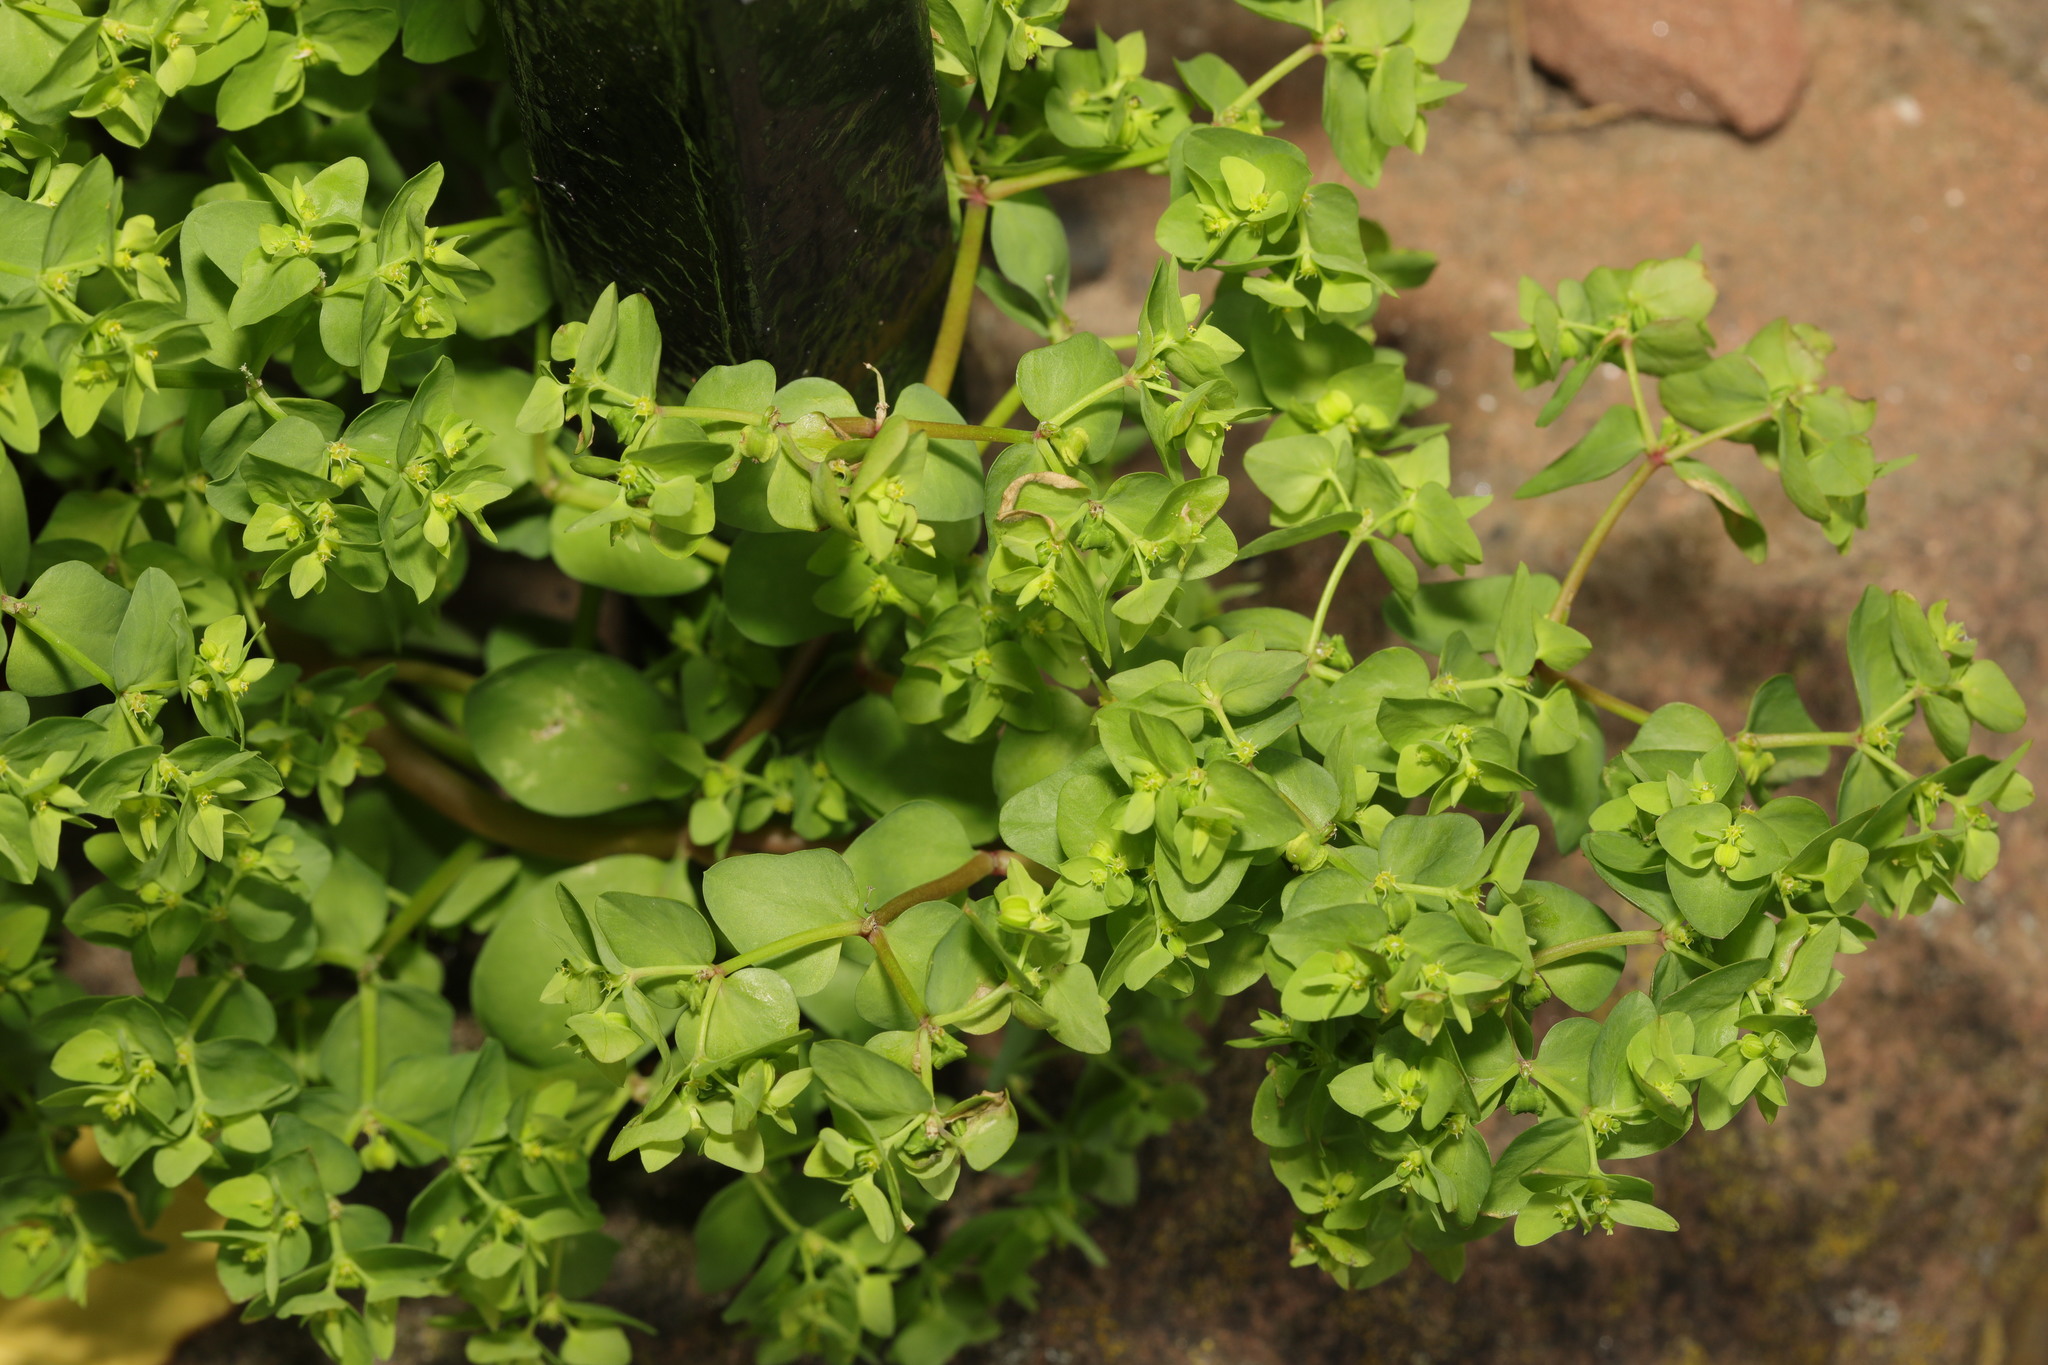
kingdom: Plantae
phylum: Tracheophyta
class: Magnoliopsida
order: Malpighiales
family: Euphorbiaceae
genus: Euphorbia
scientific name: Euphorbia peplus
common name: Petty spurge
